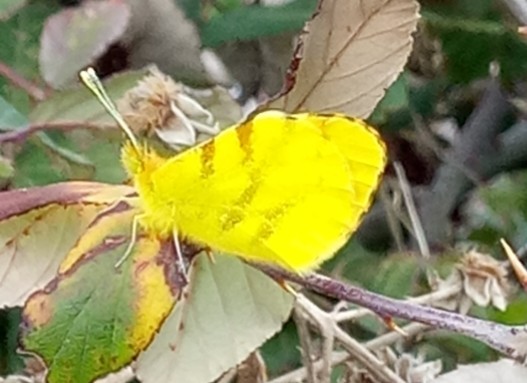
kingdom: Animalia
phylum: Arthropoda
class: Insecta
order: Lepidoptera
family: Pieridae
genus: Anthocharis
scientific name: Anthocharis belia
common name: Moroccan orange tip
